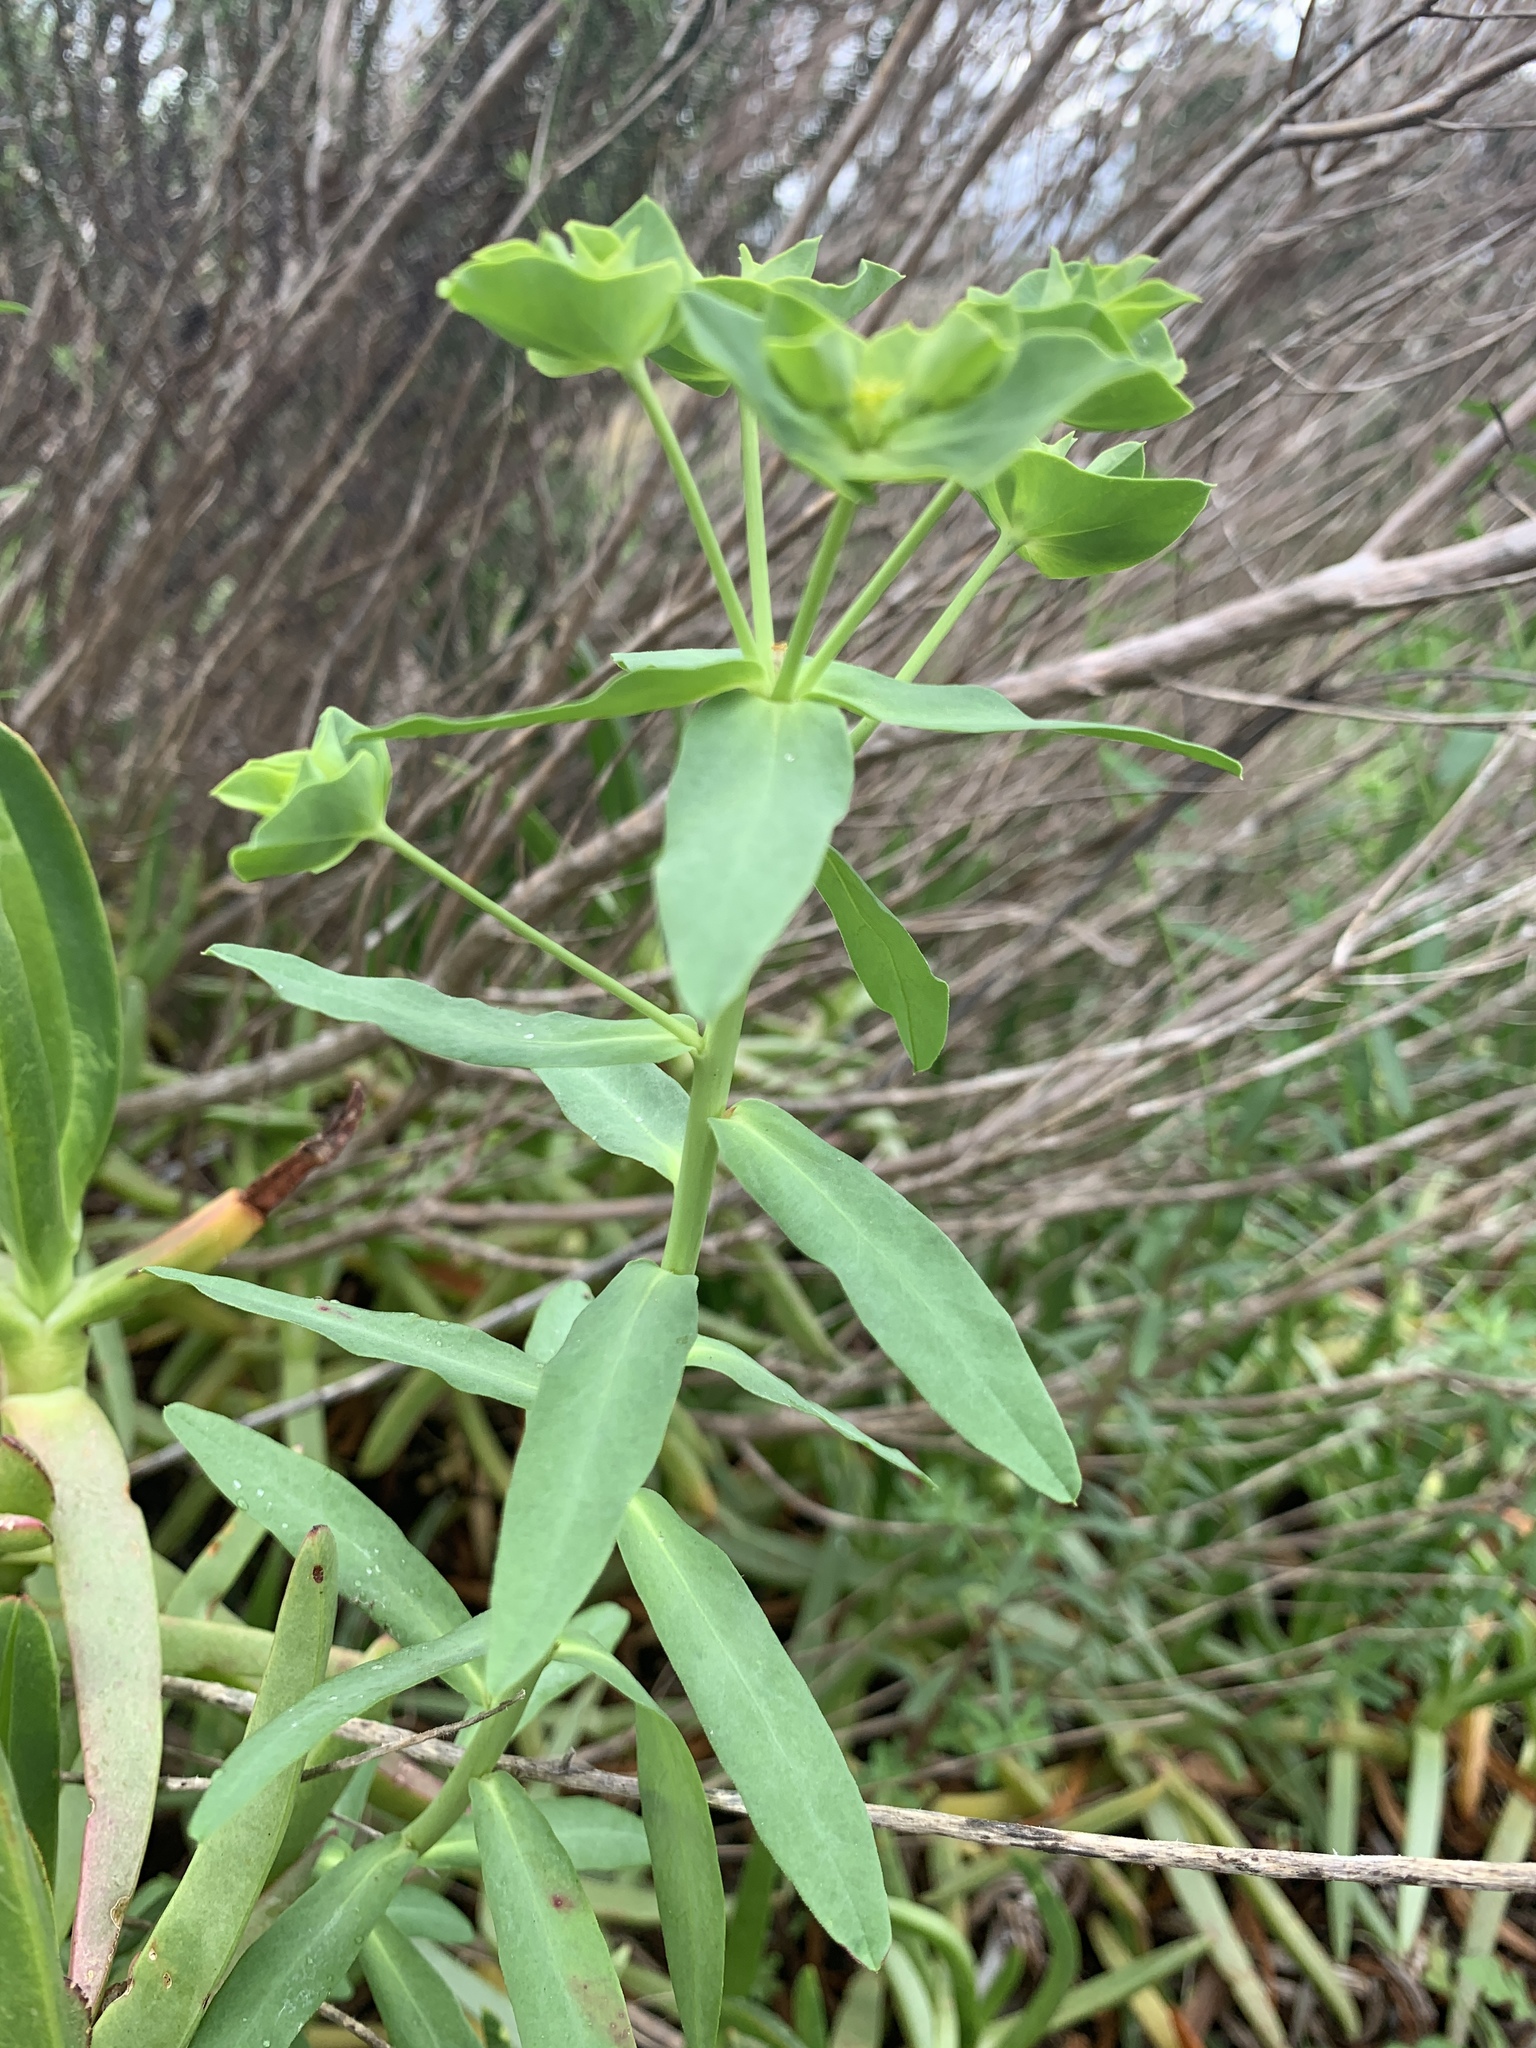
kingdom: Plantae
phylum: Tracheophyta
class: Magnoliopsida
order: Malpighiales
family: Euphorbiaceae
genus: Euphorbia
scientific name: Euphorbia terracina
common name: Geraldton carnation weed
